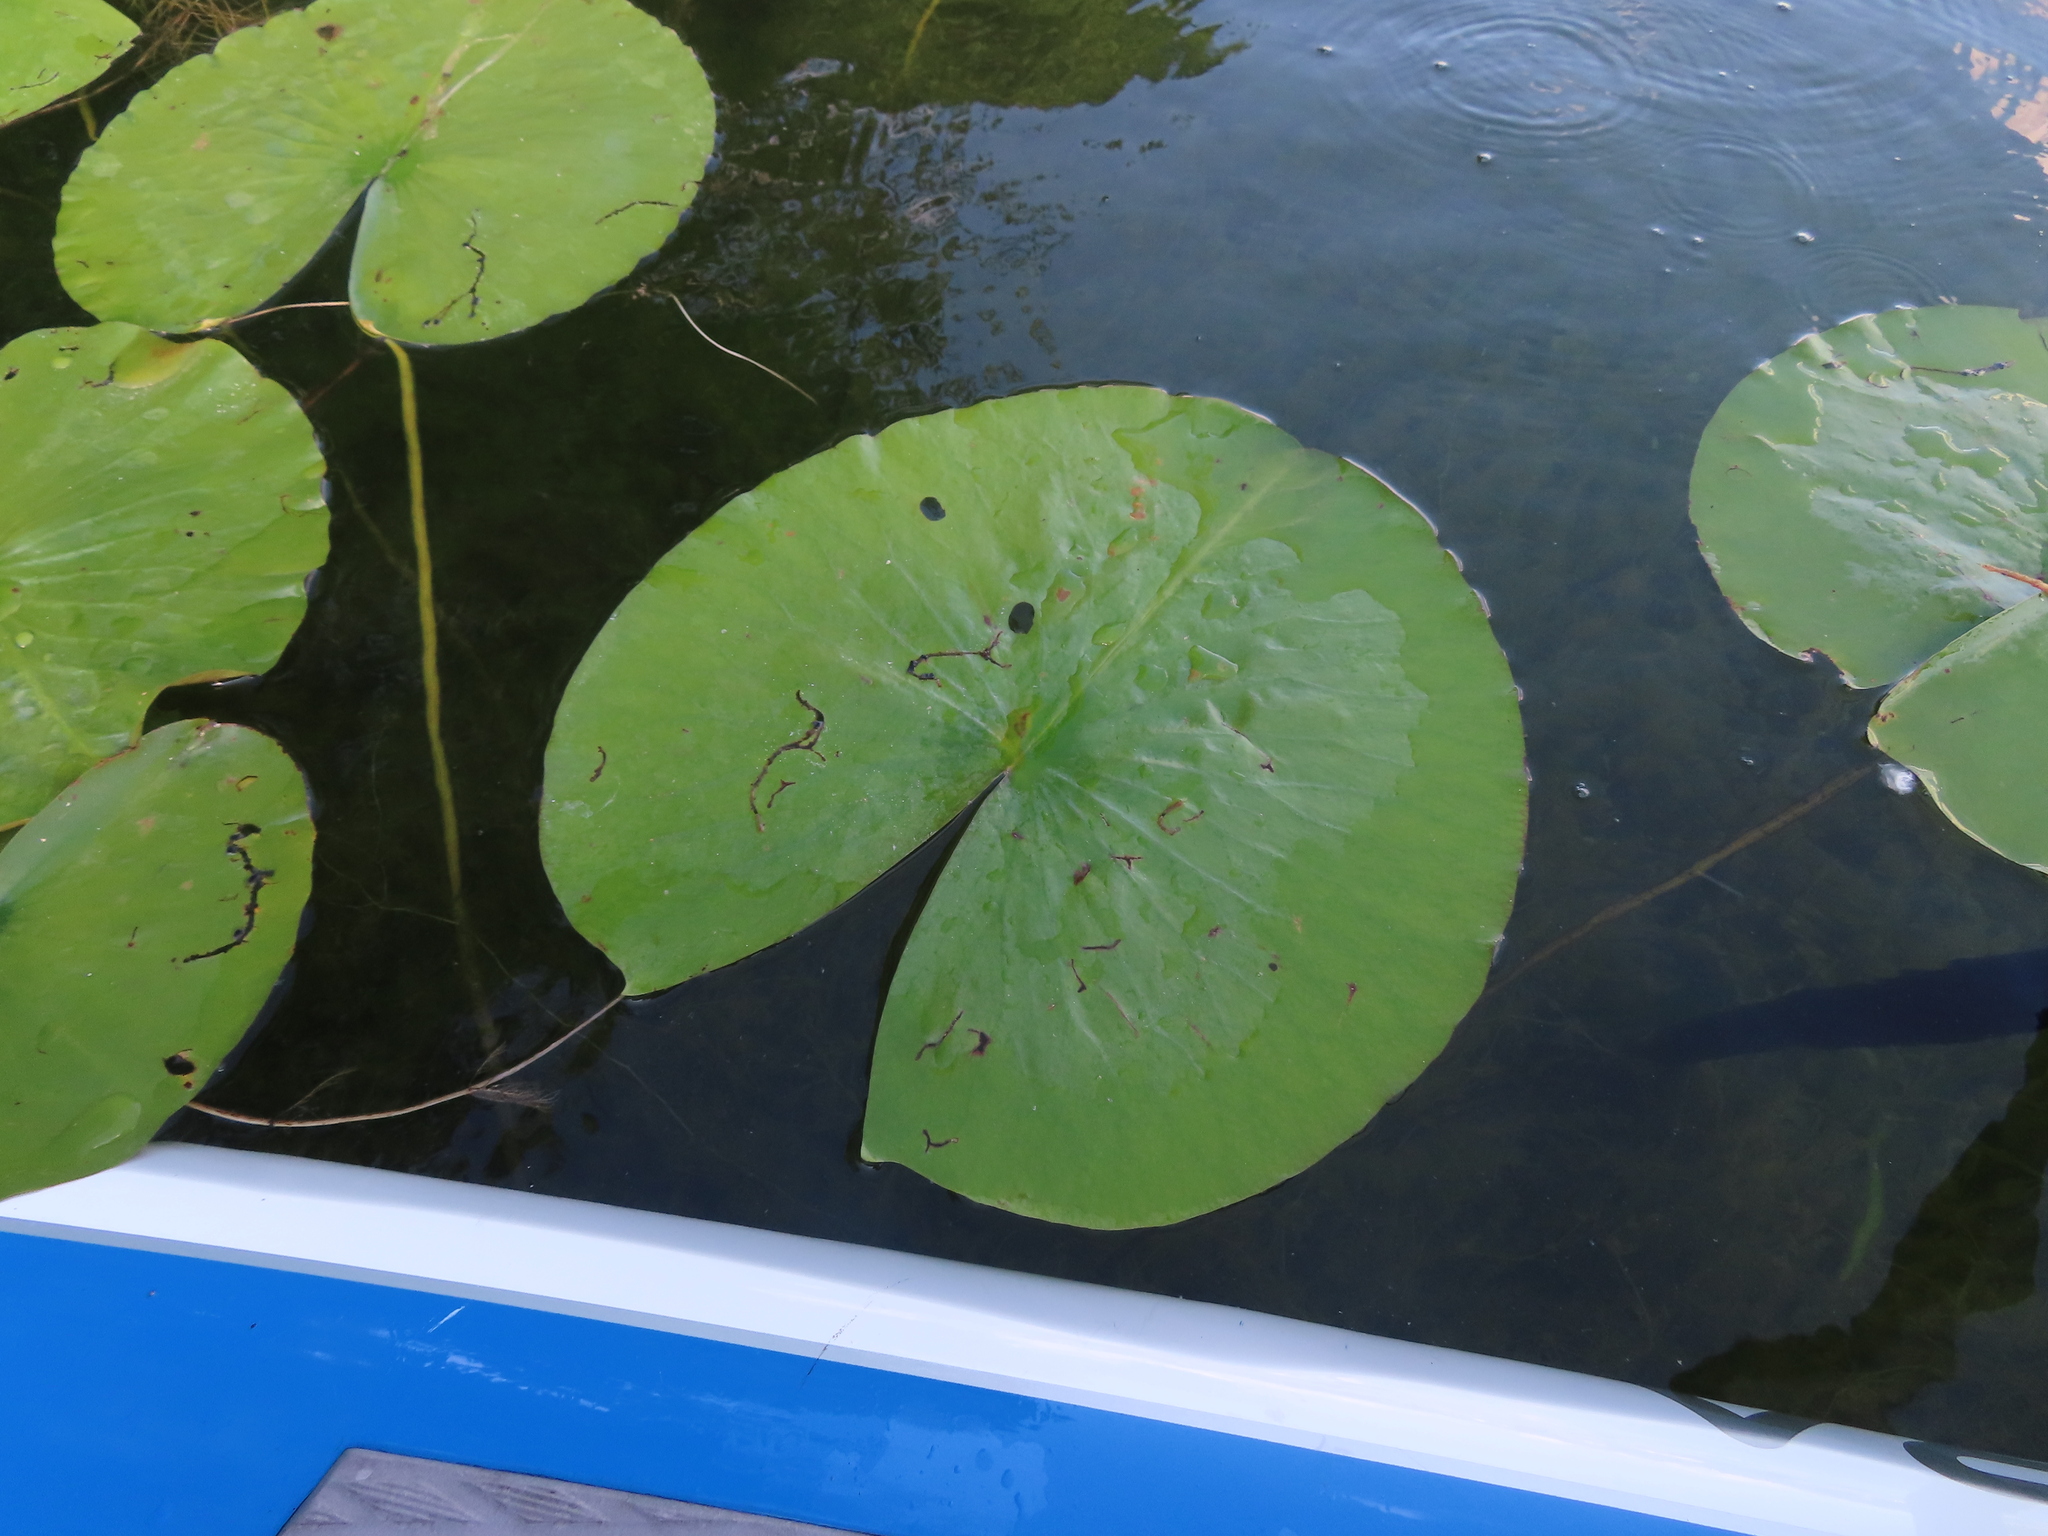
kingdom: Plantae
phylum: Tracheophyta
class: Magnoliopsida
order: Nymphaeales
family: Nymphaeaceae
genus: Nymphaea
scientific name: Nymphaea odorata
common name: Fragrant water-lily
